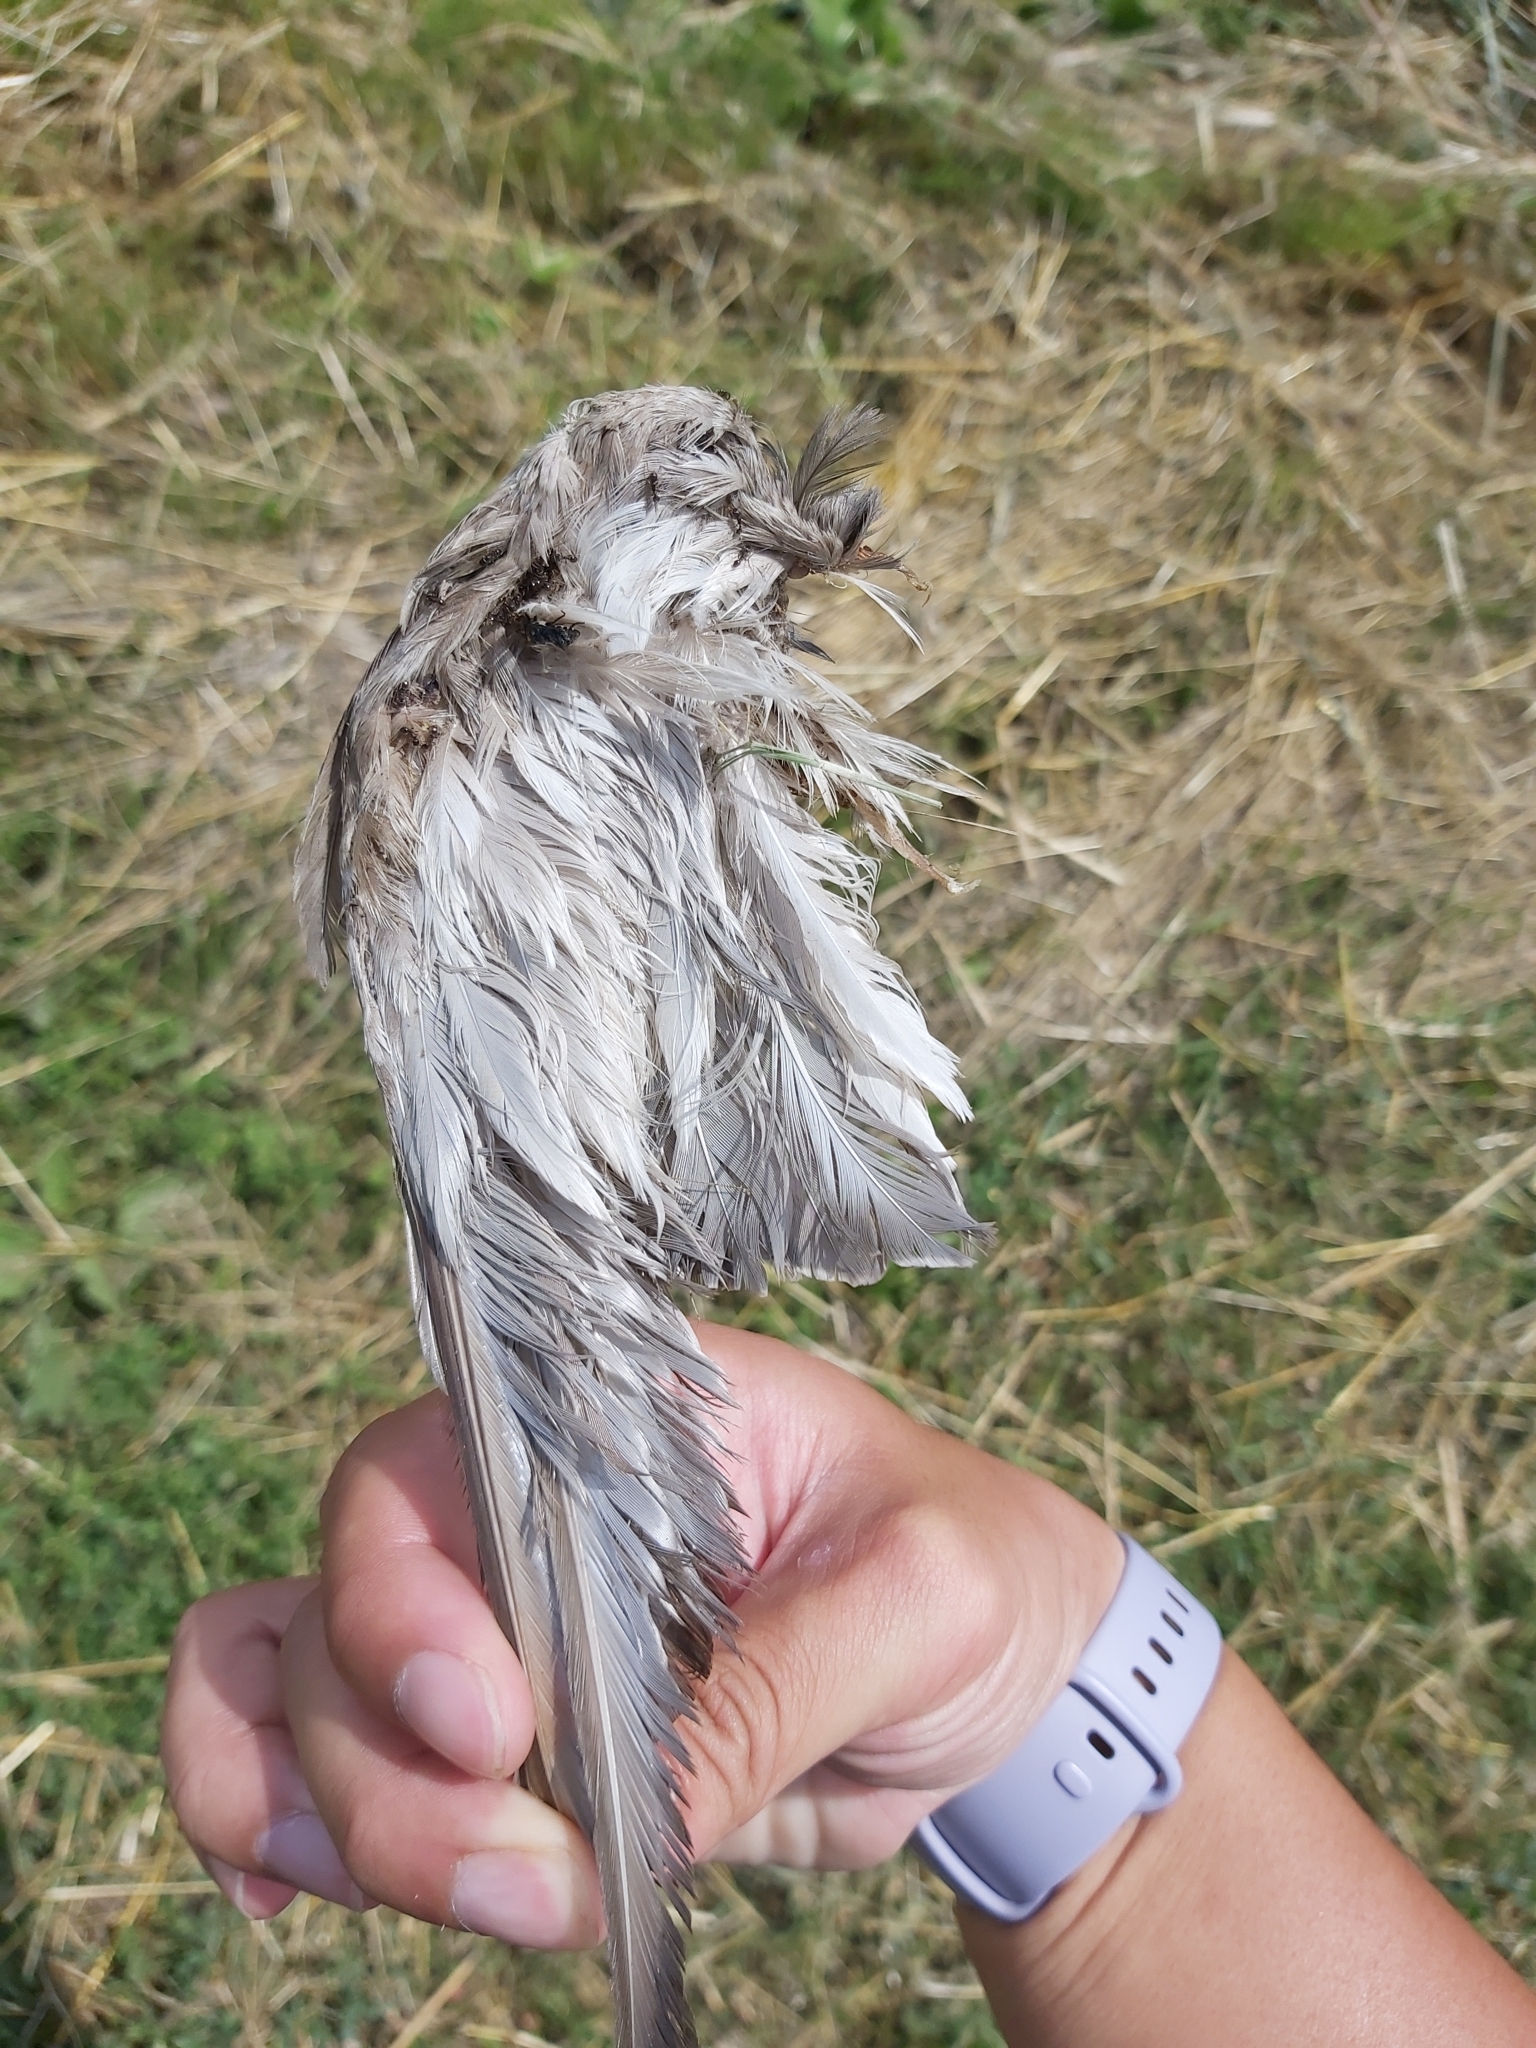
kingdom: Animalia
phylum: Chordata
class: Aves
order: Anseriformes
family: Anatidae
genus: Aythya
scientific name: Aythya ferina
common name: Common pochard
